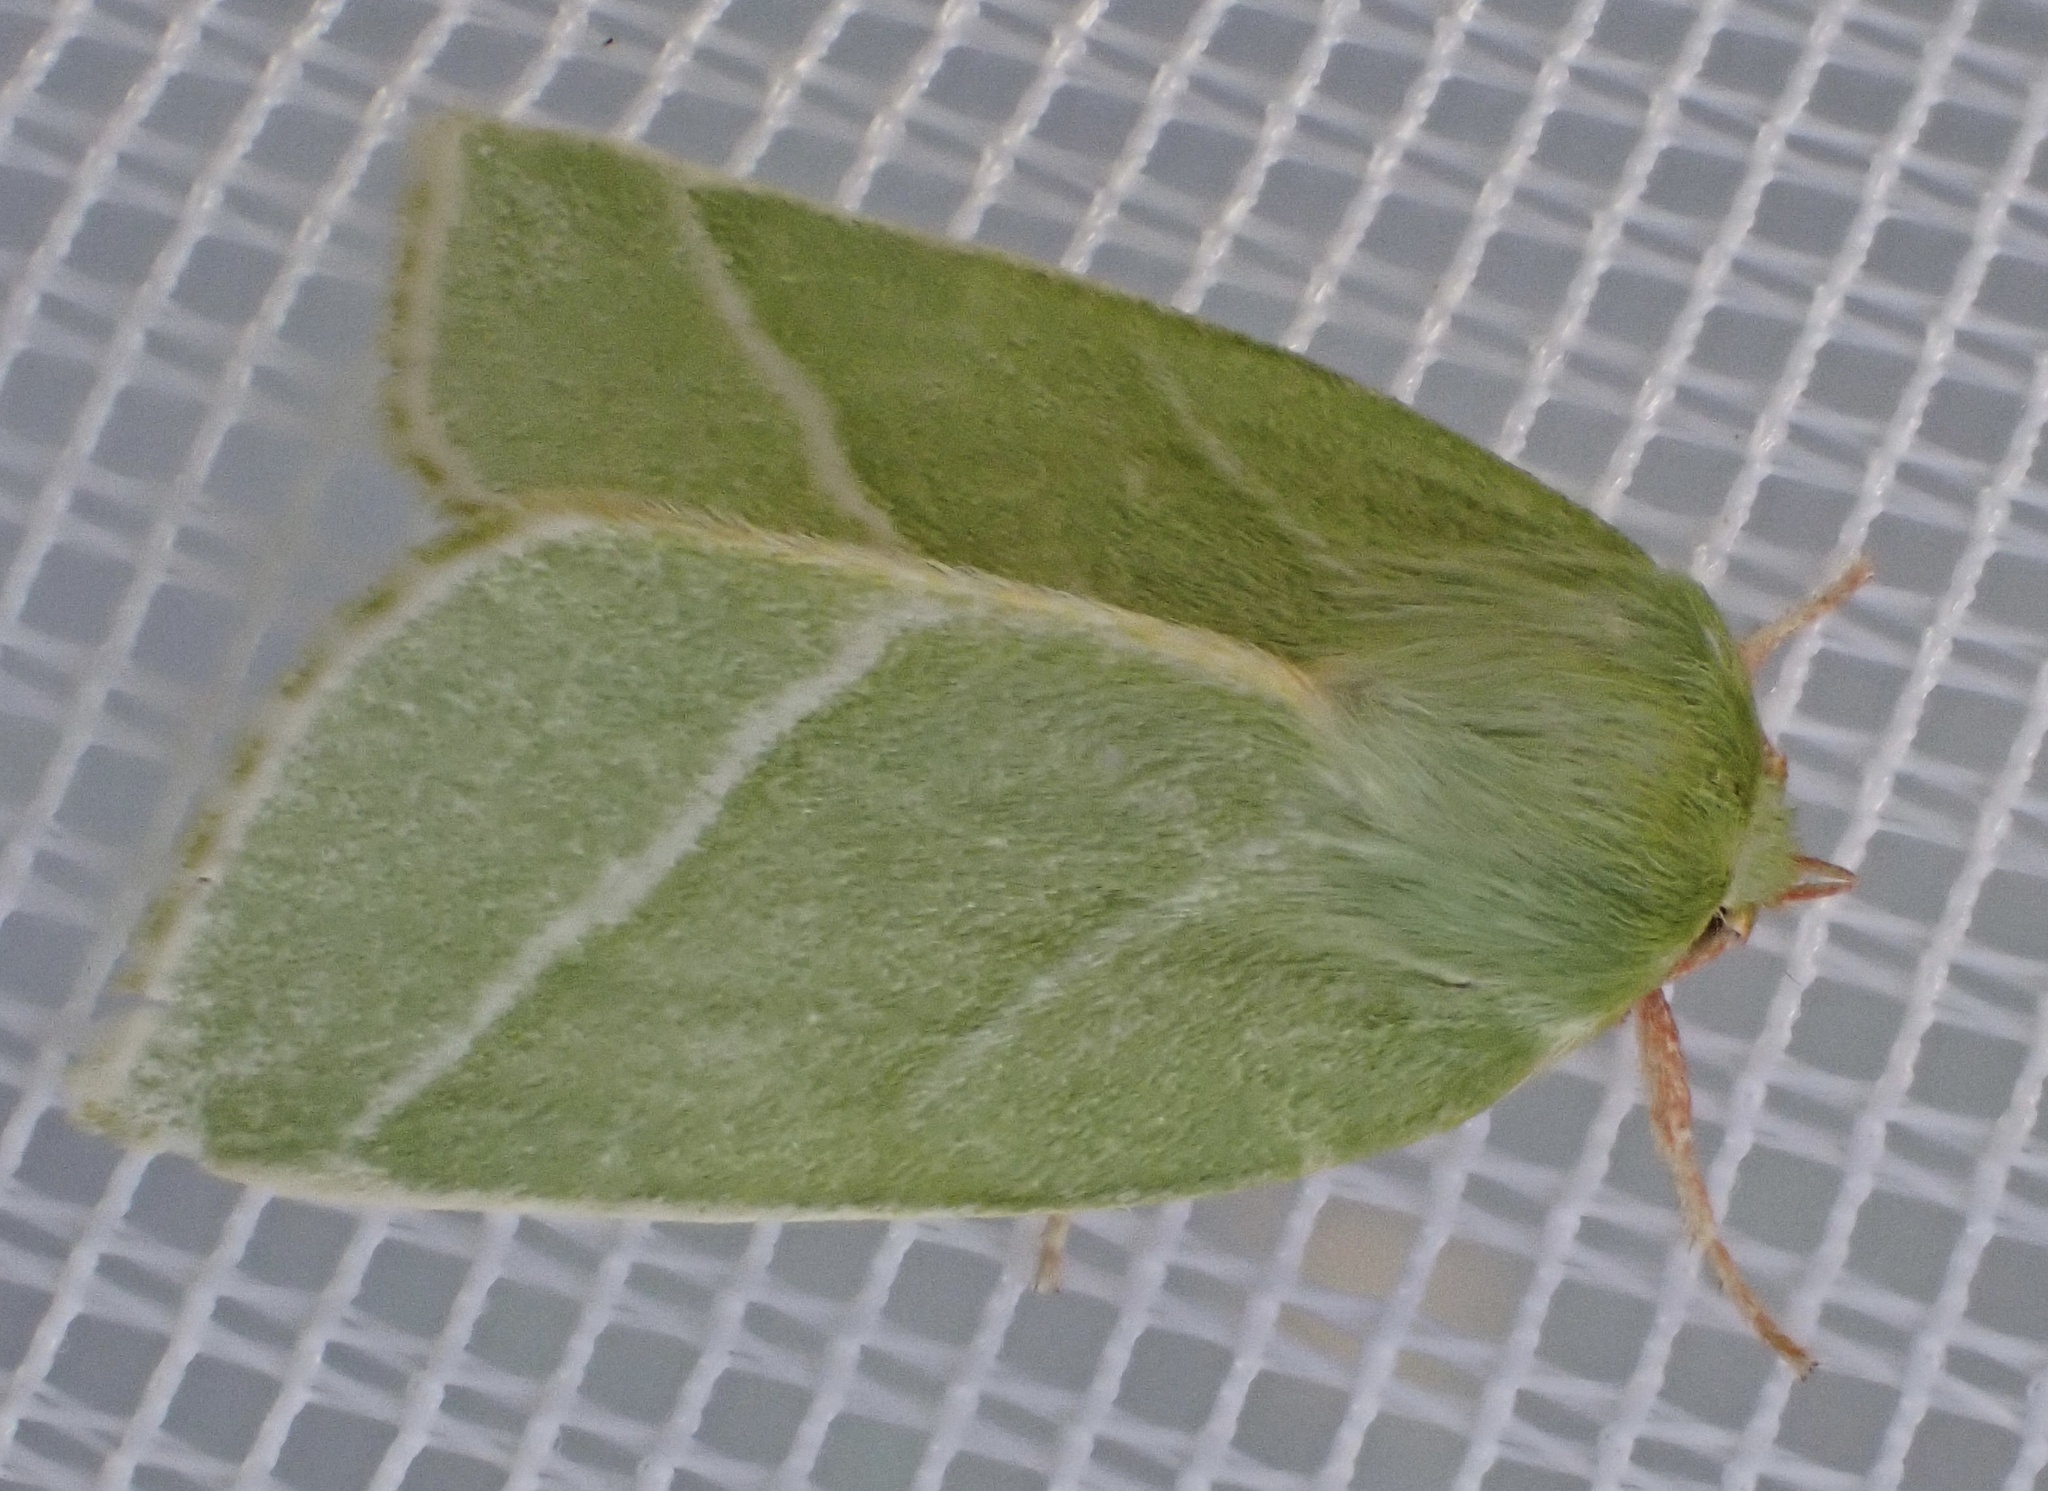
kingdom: Animalia
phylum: Arthropoda
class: Insecta
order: Lepidoptera
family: Nolidae
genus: Pseudoips
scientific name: Pseudoips prasinana
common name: Green silver-lines
